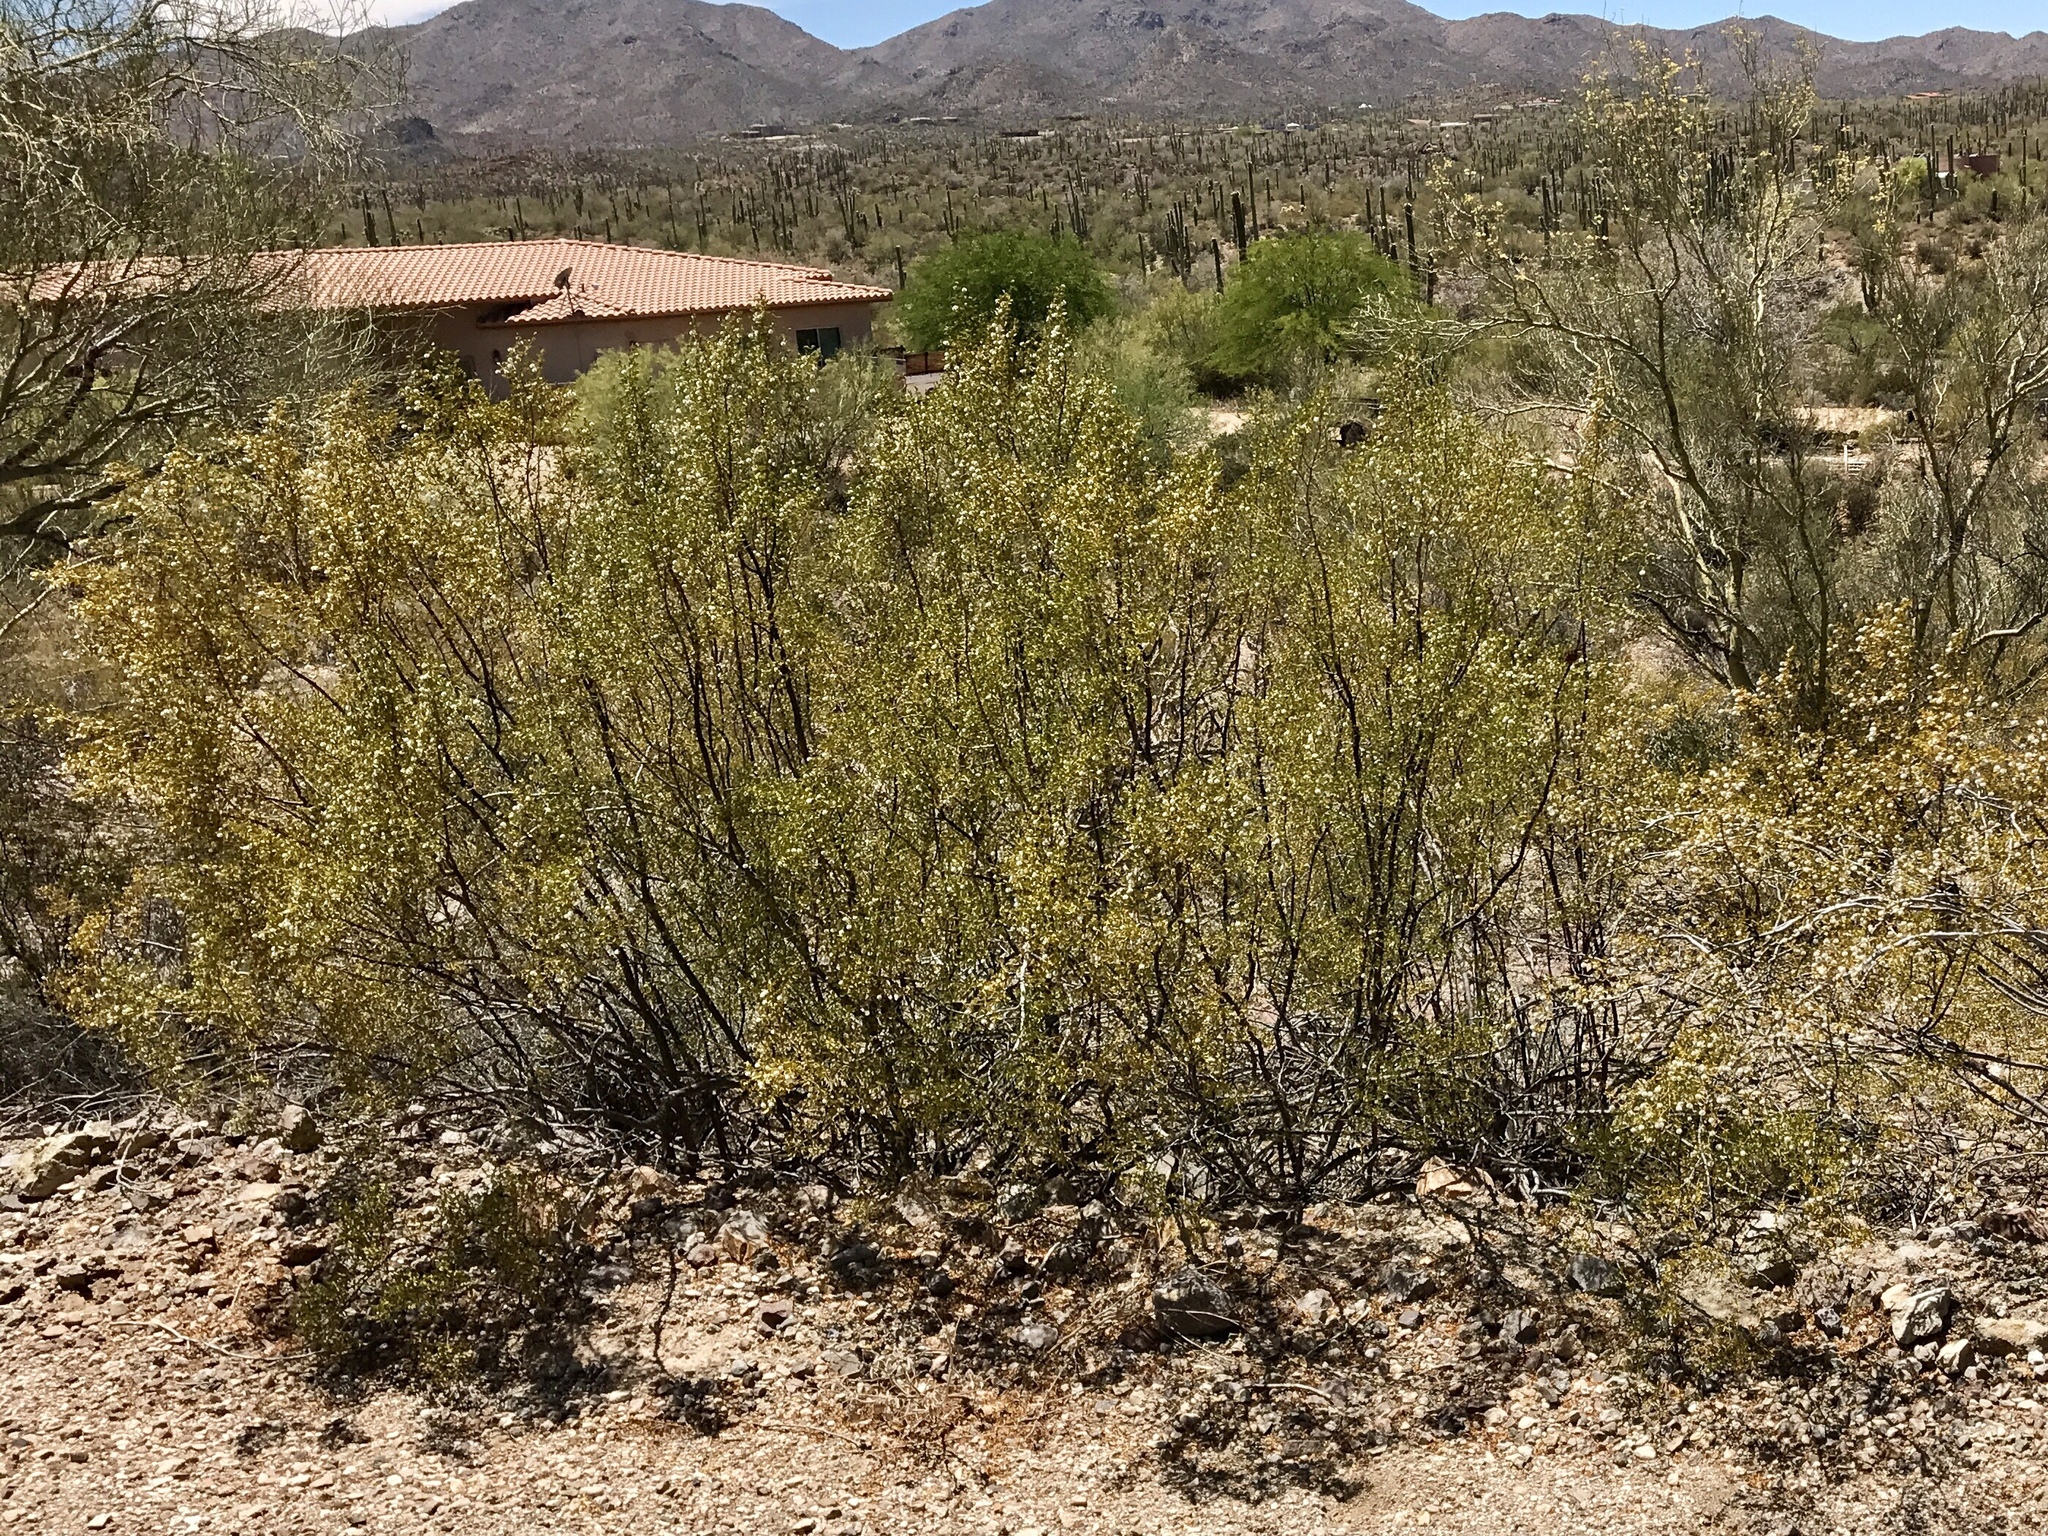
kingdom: Plantae
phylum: Tracheophyta
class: Magnoliopsida
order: Zygophyllales
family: Zygophyllaceae
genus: Larrea
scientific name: Larrea tridentata
